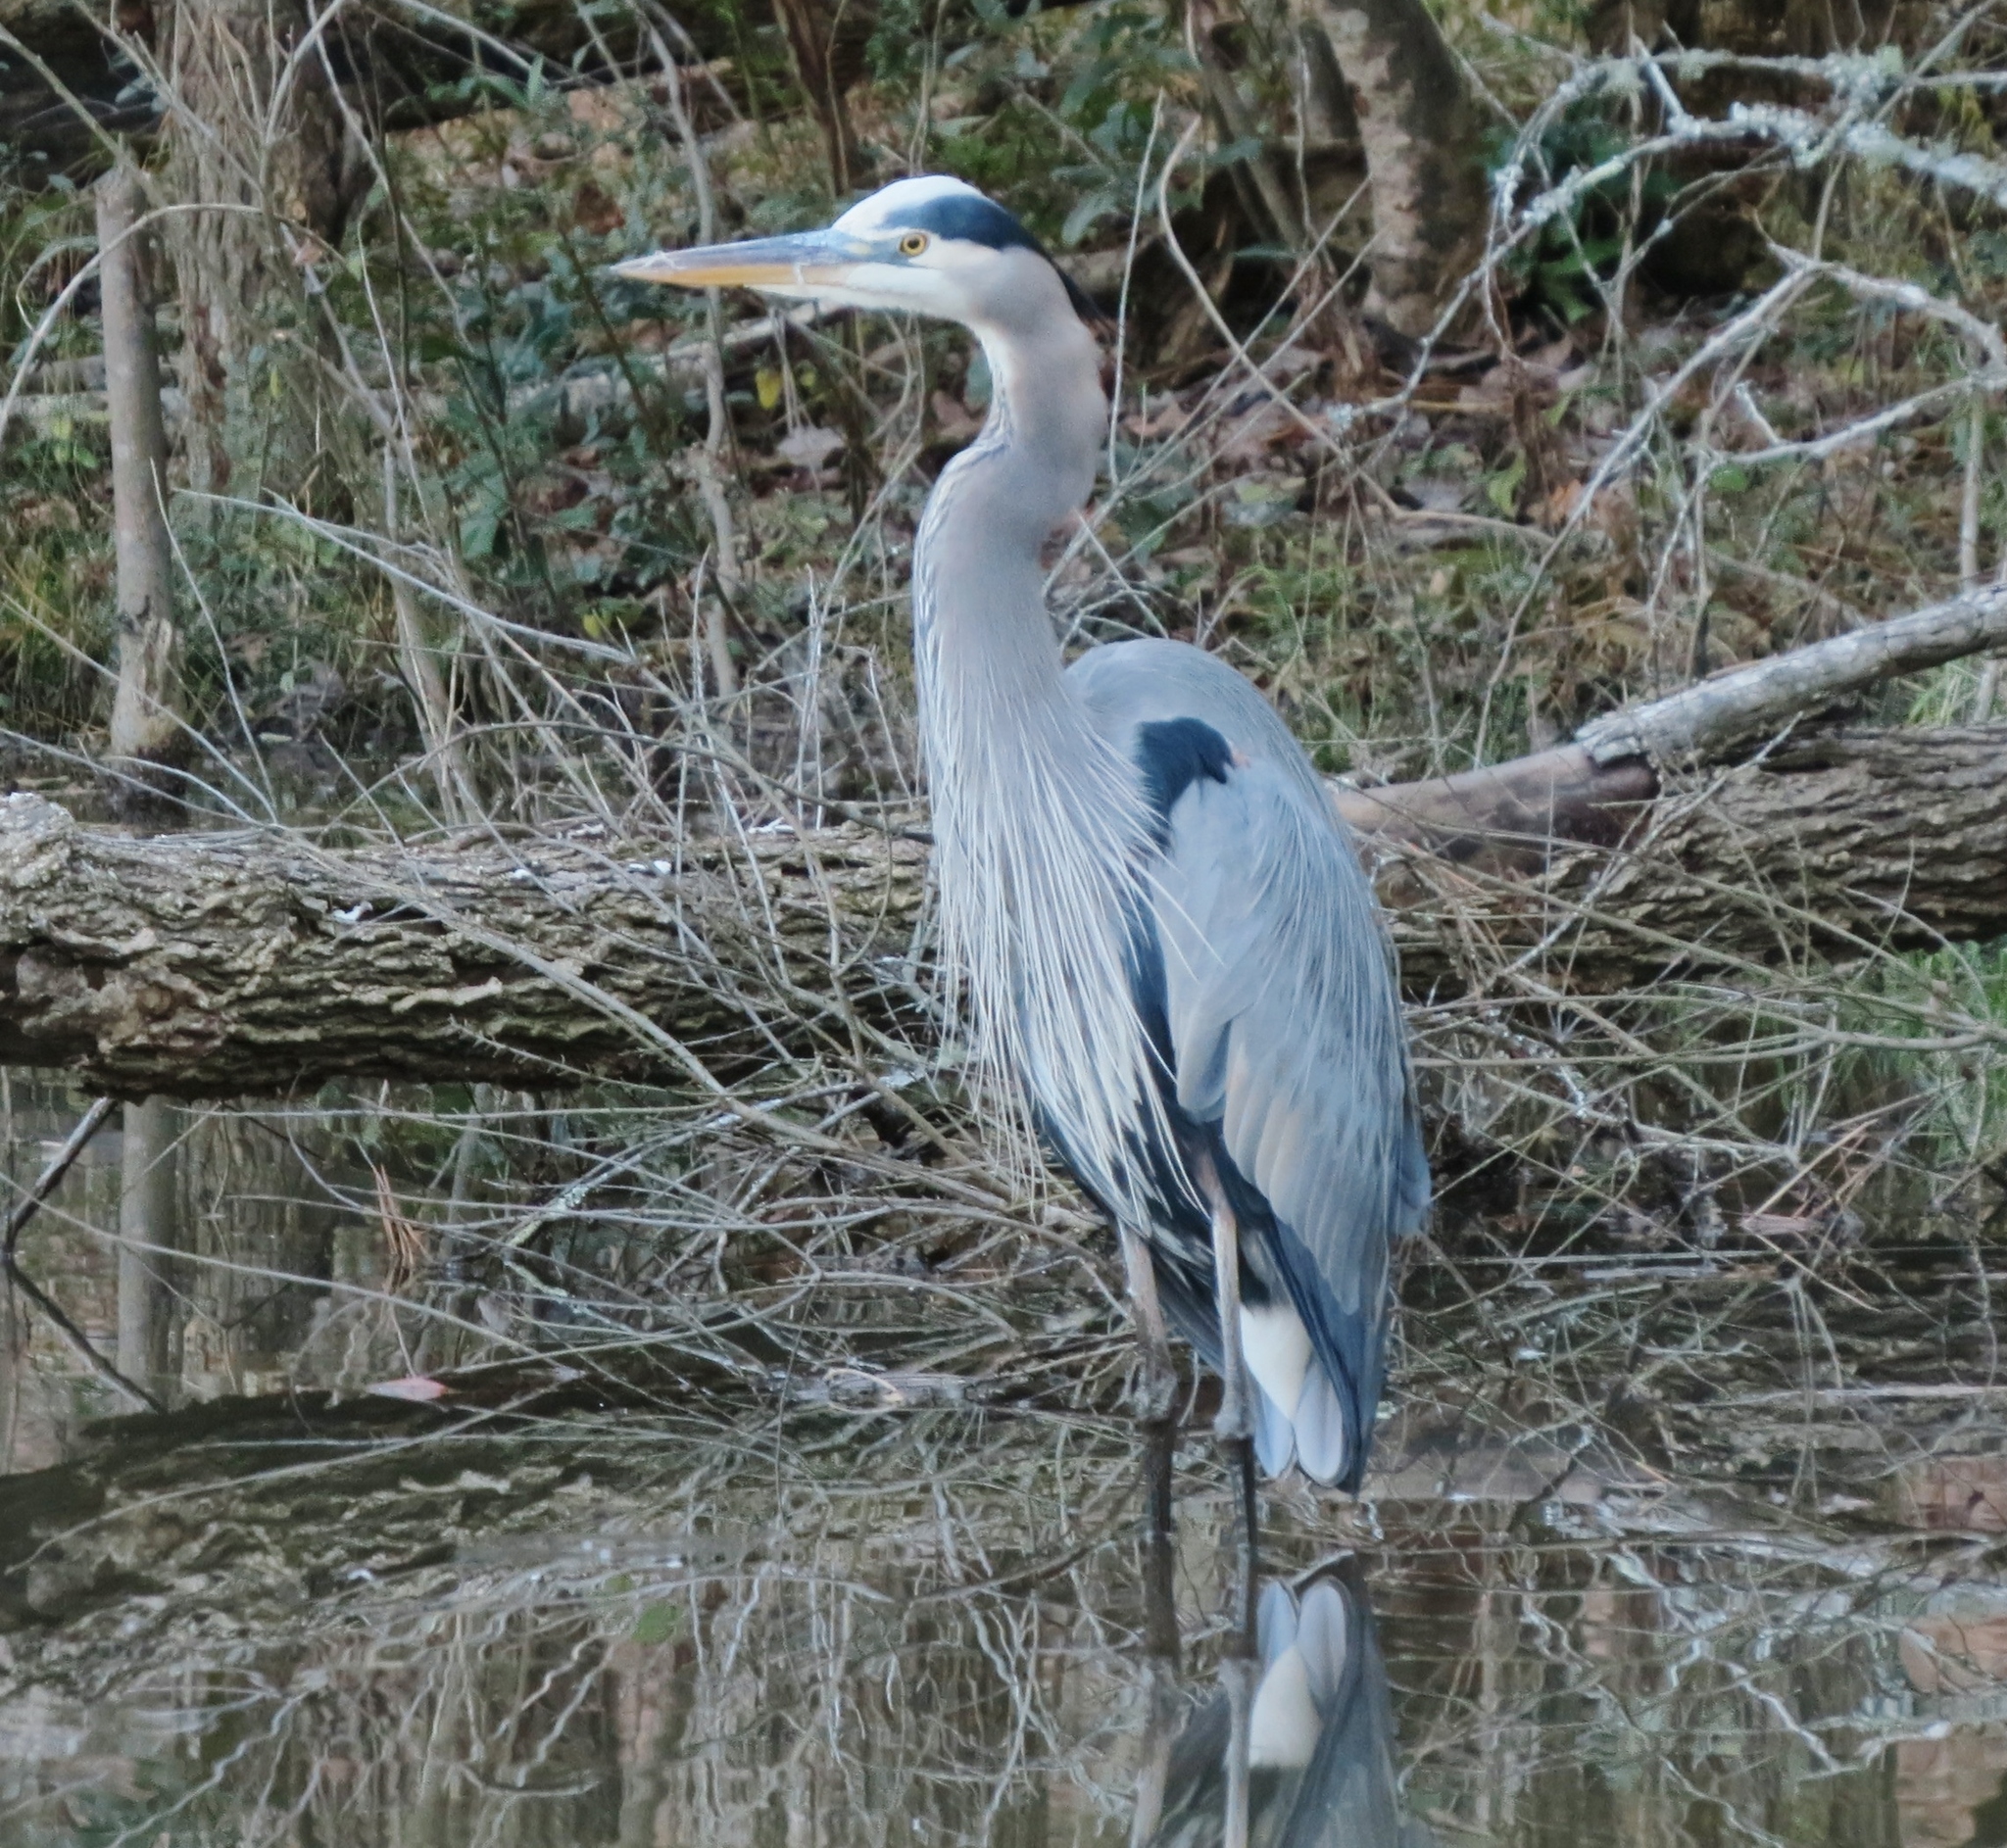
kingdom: Animalia
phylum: Chordata
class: Aves
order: Pelecaniformes
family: Ardeidae
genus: Ardea
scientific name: Ardea herodias
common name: Great blue heron
